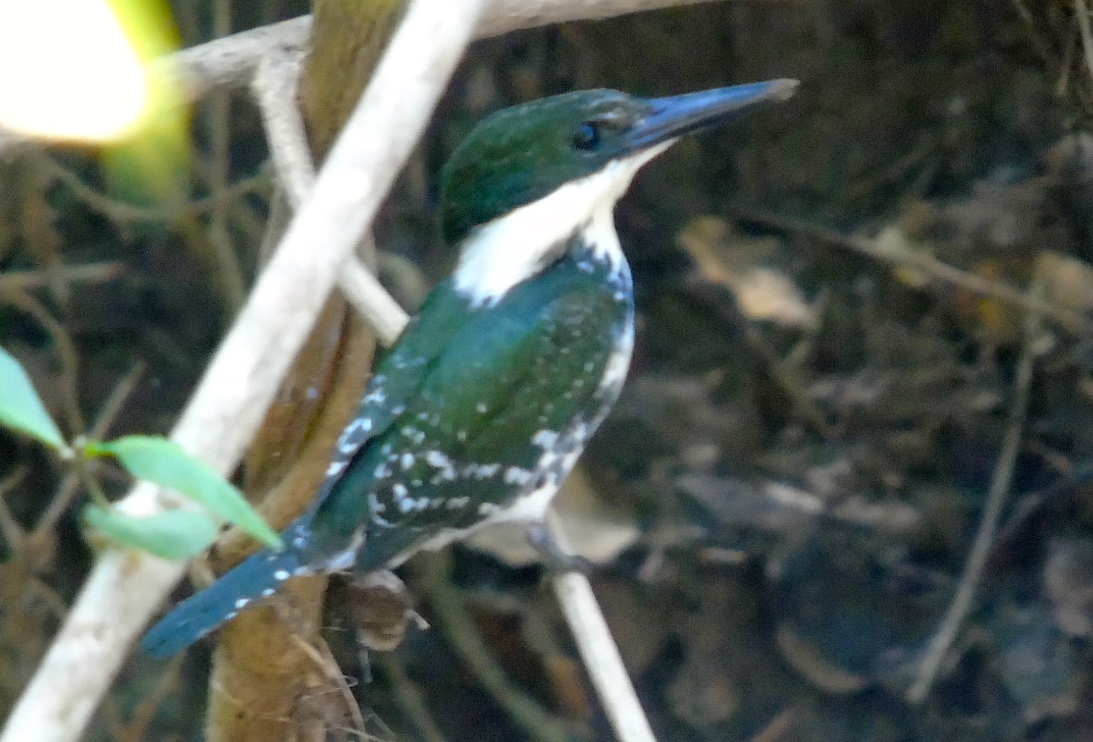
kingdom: Animalia
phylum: Chordata
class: Aves
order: Coraciiformes
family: Alcedinidae
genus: Chloroceryle
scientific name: Chloroceryle americana
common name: Green kingfisher
